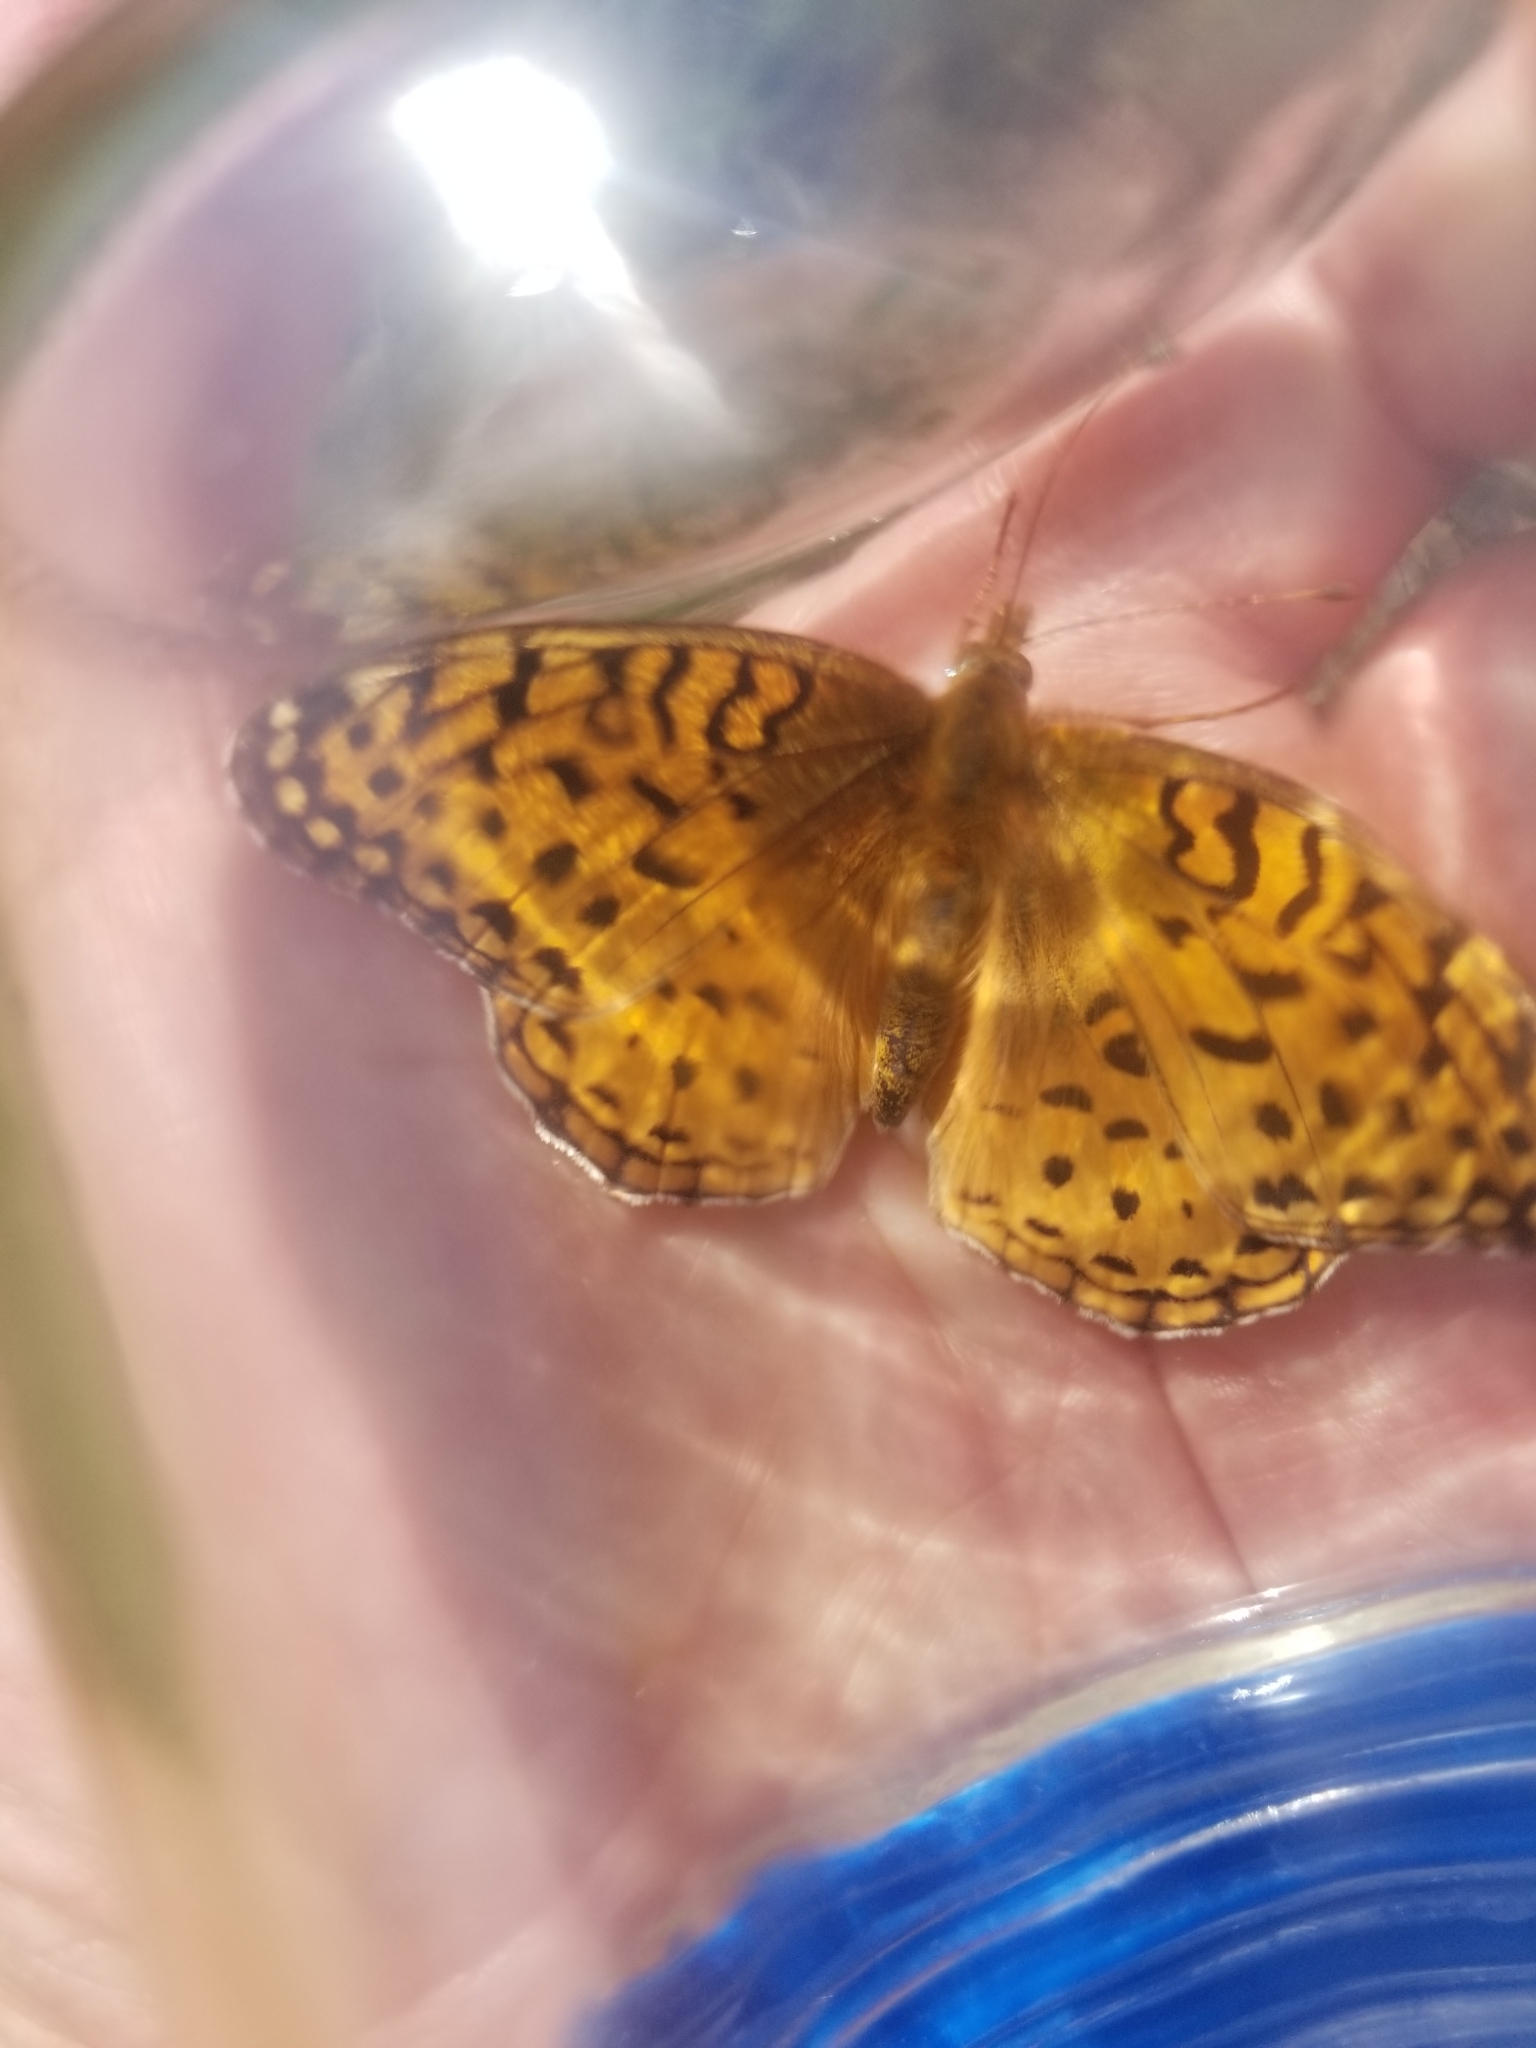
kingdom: Animalia
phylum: Arthropoda
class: Insecta
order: Lepidoptera
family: Nymphalidae
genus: Speyeria
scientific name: Speyeria aphrodite
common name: Aphrodite friitllary
